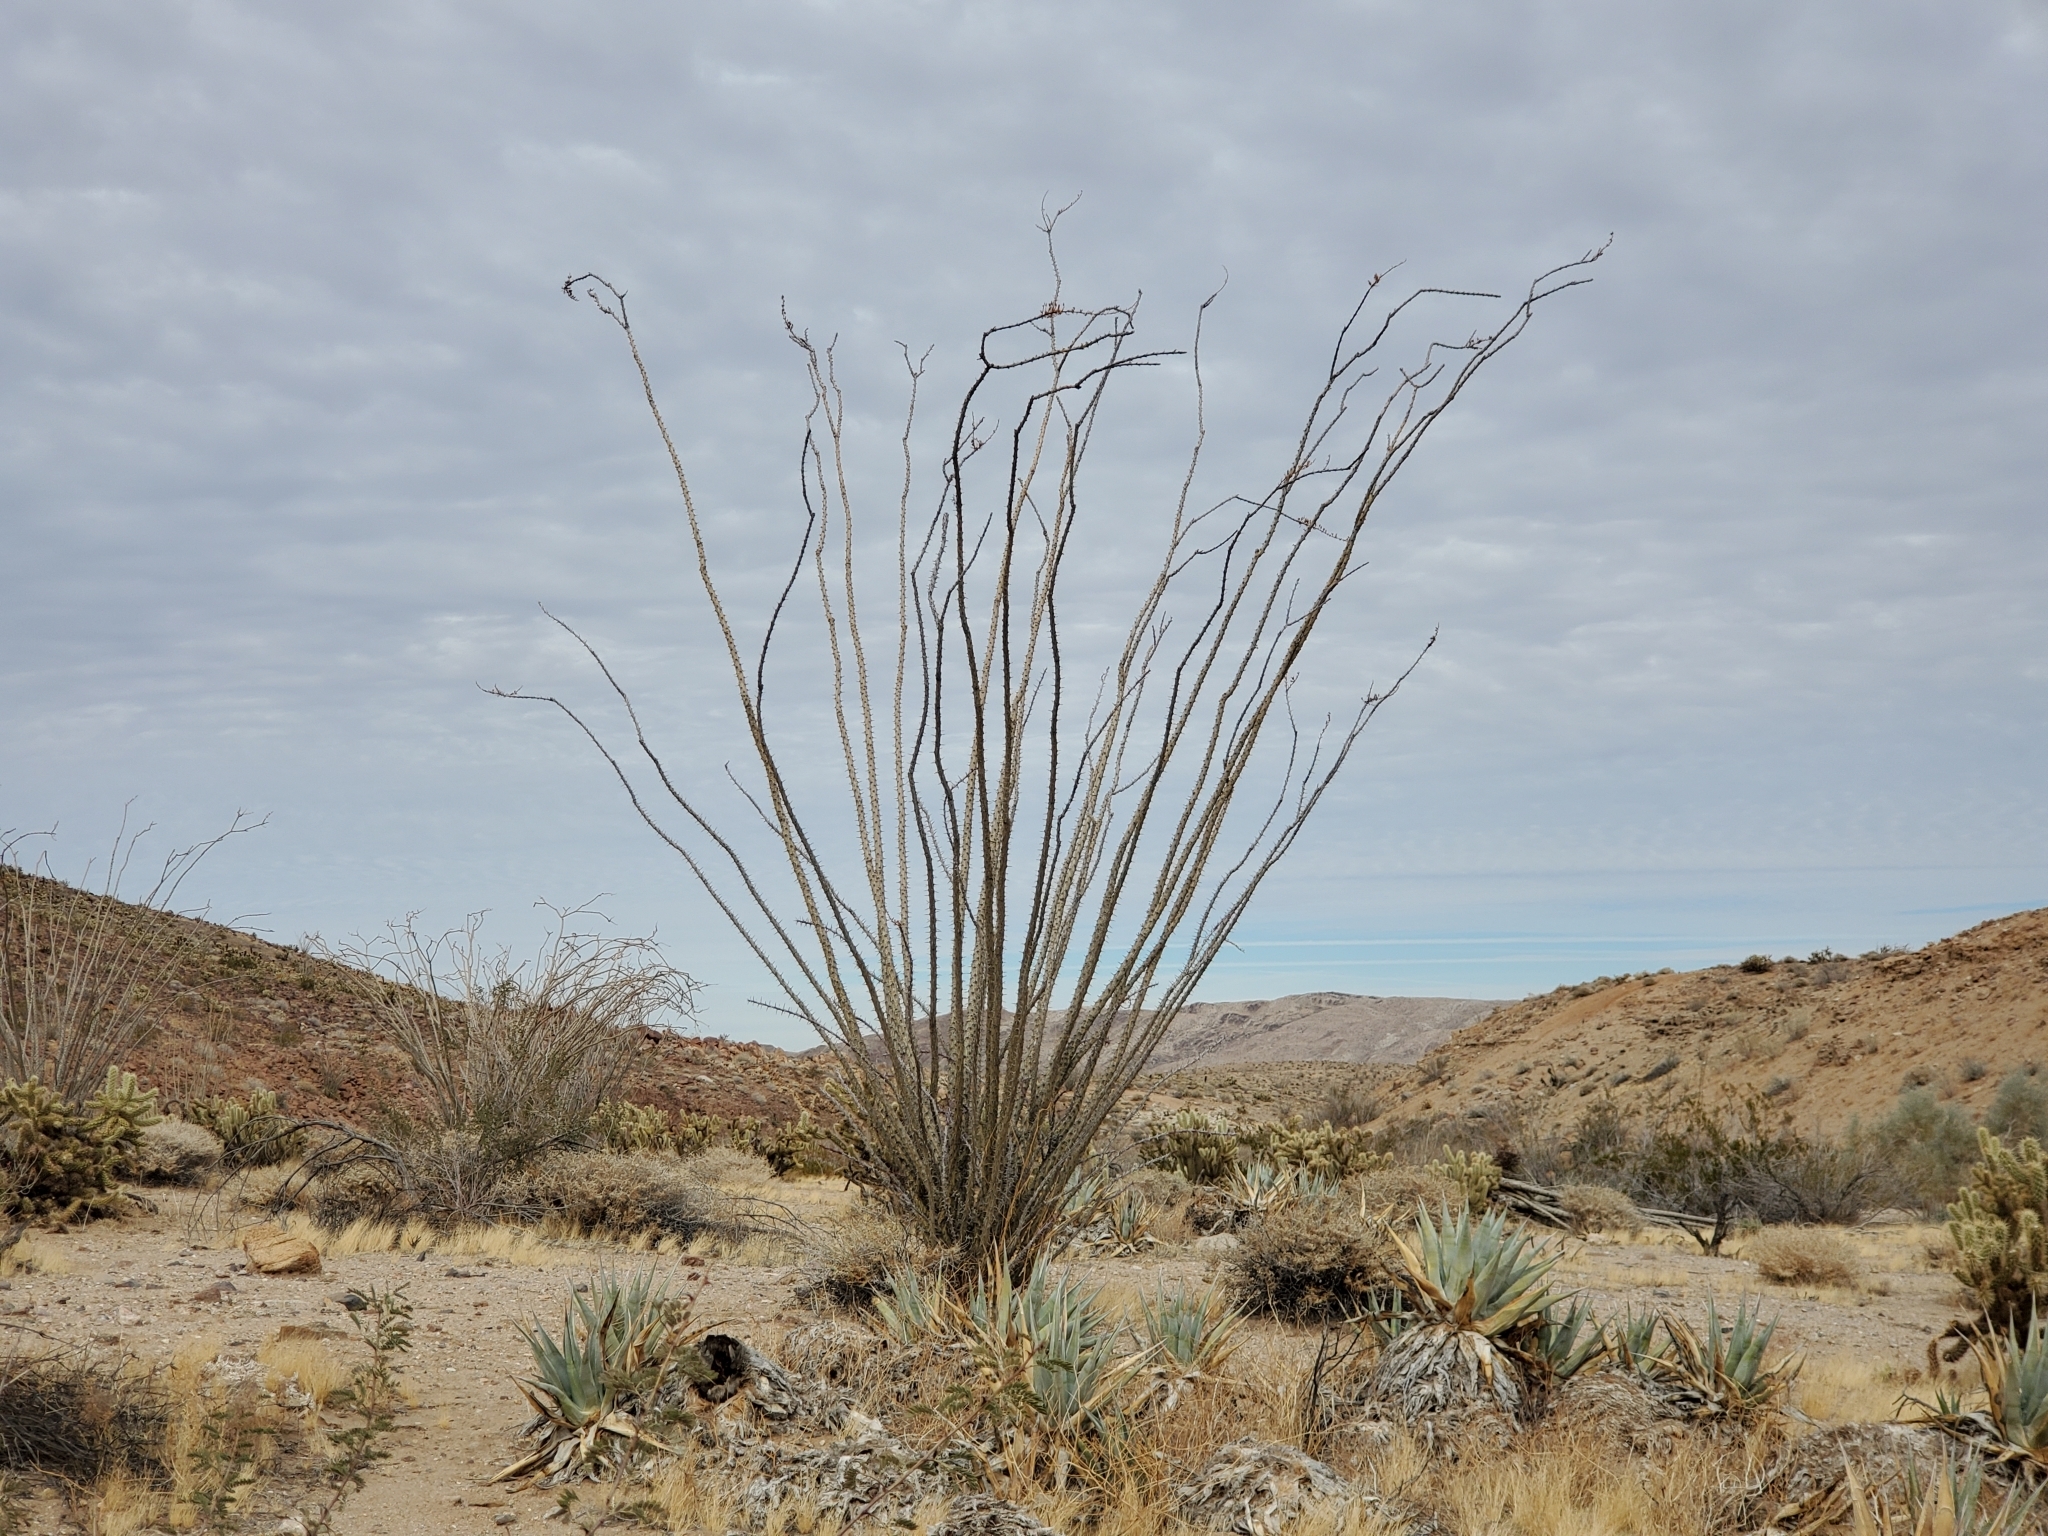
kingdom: Plantae
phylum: Tracheophyta
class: Magnoliopsida
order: Ericales
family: Fouquieriaceae
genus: Fouquieria
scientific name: Fouquieria splendens
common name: Vine-cactus
